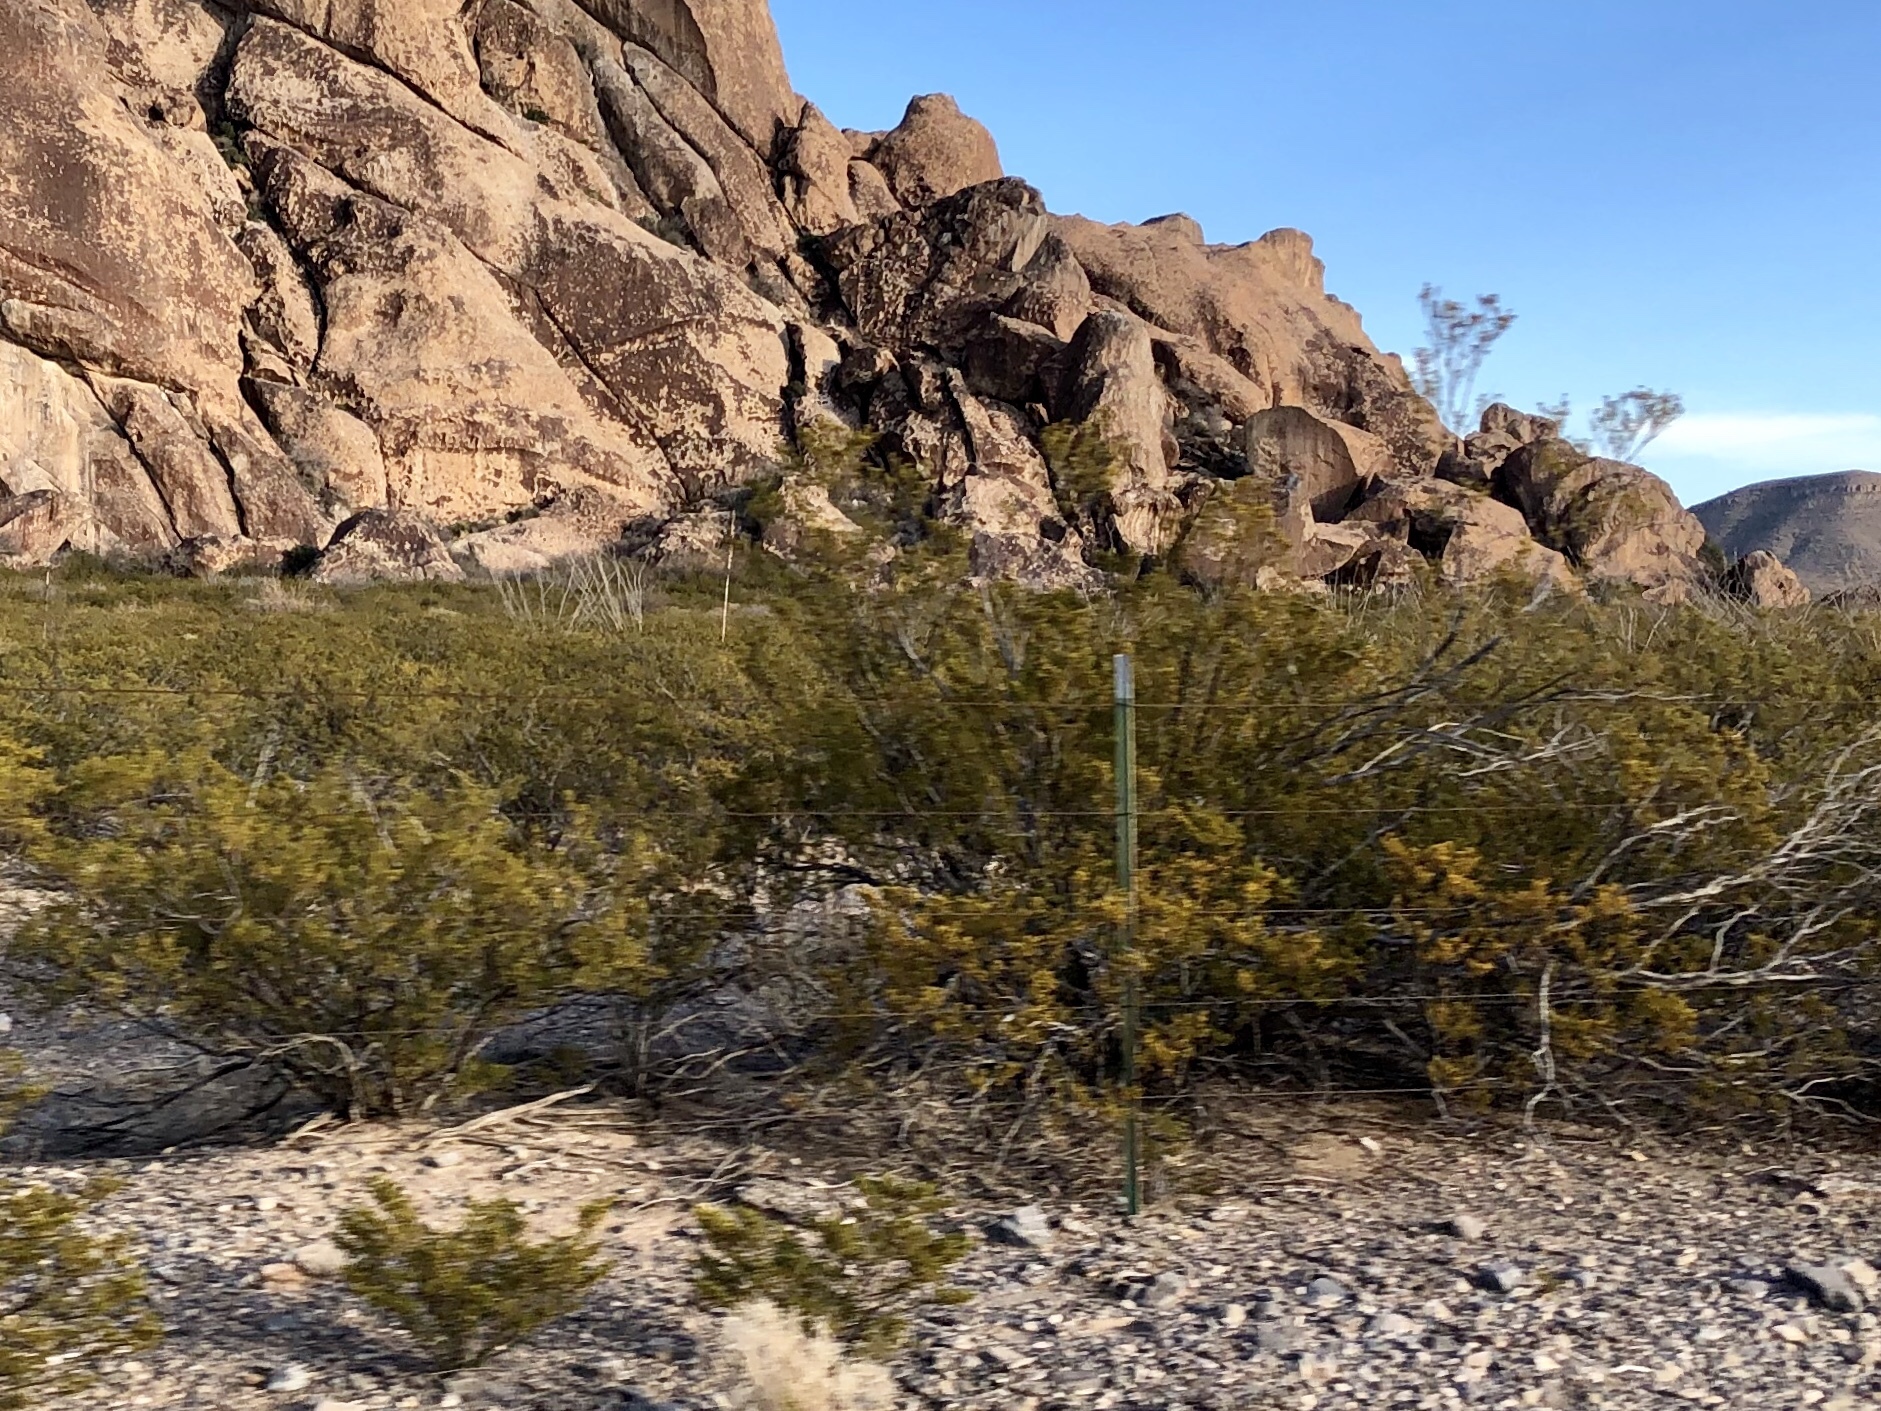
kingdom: Plantae
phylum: Tracheophyta
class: Magnoliopsida
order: Zygophyllales
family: Zygophyllaceae
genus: Larrea
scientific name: Larrea tridentata
